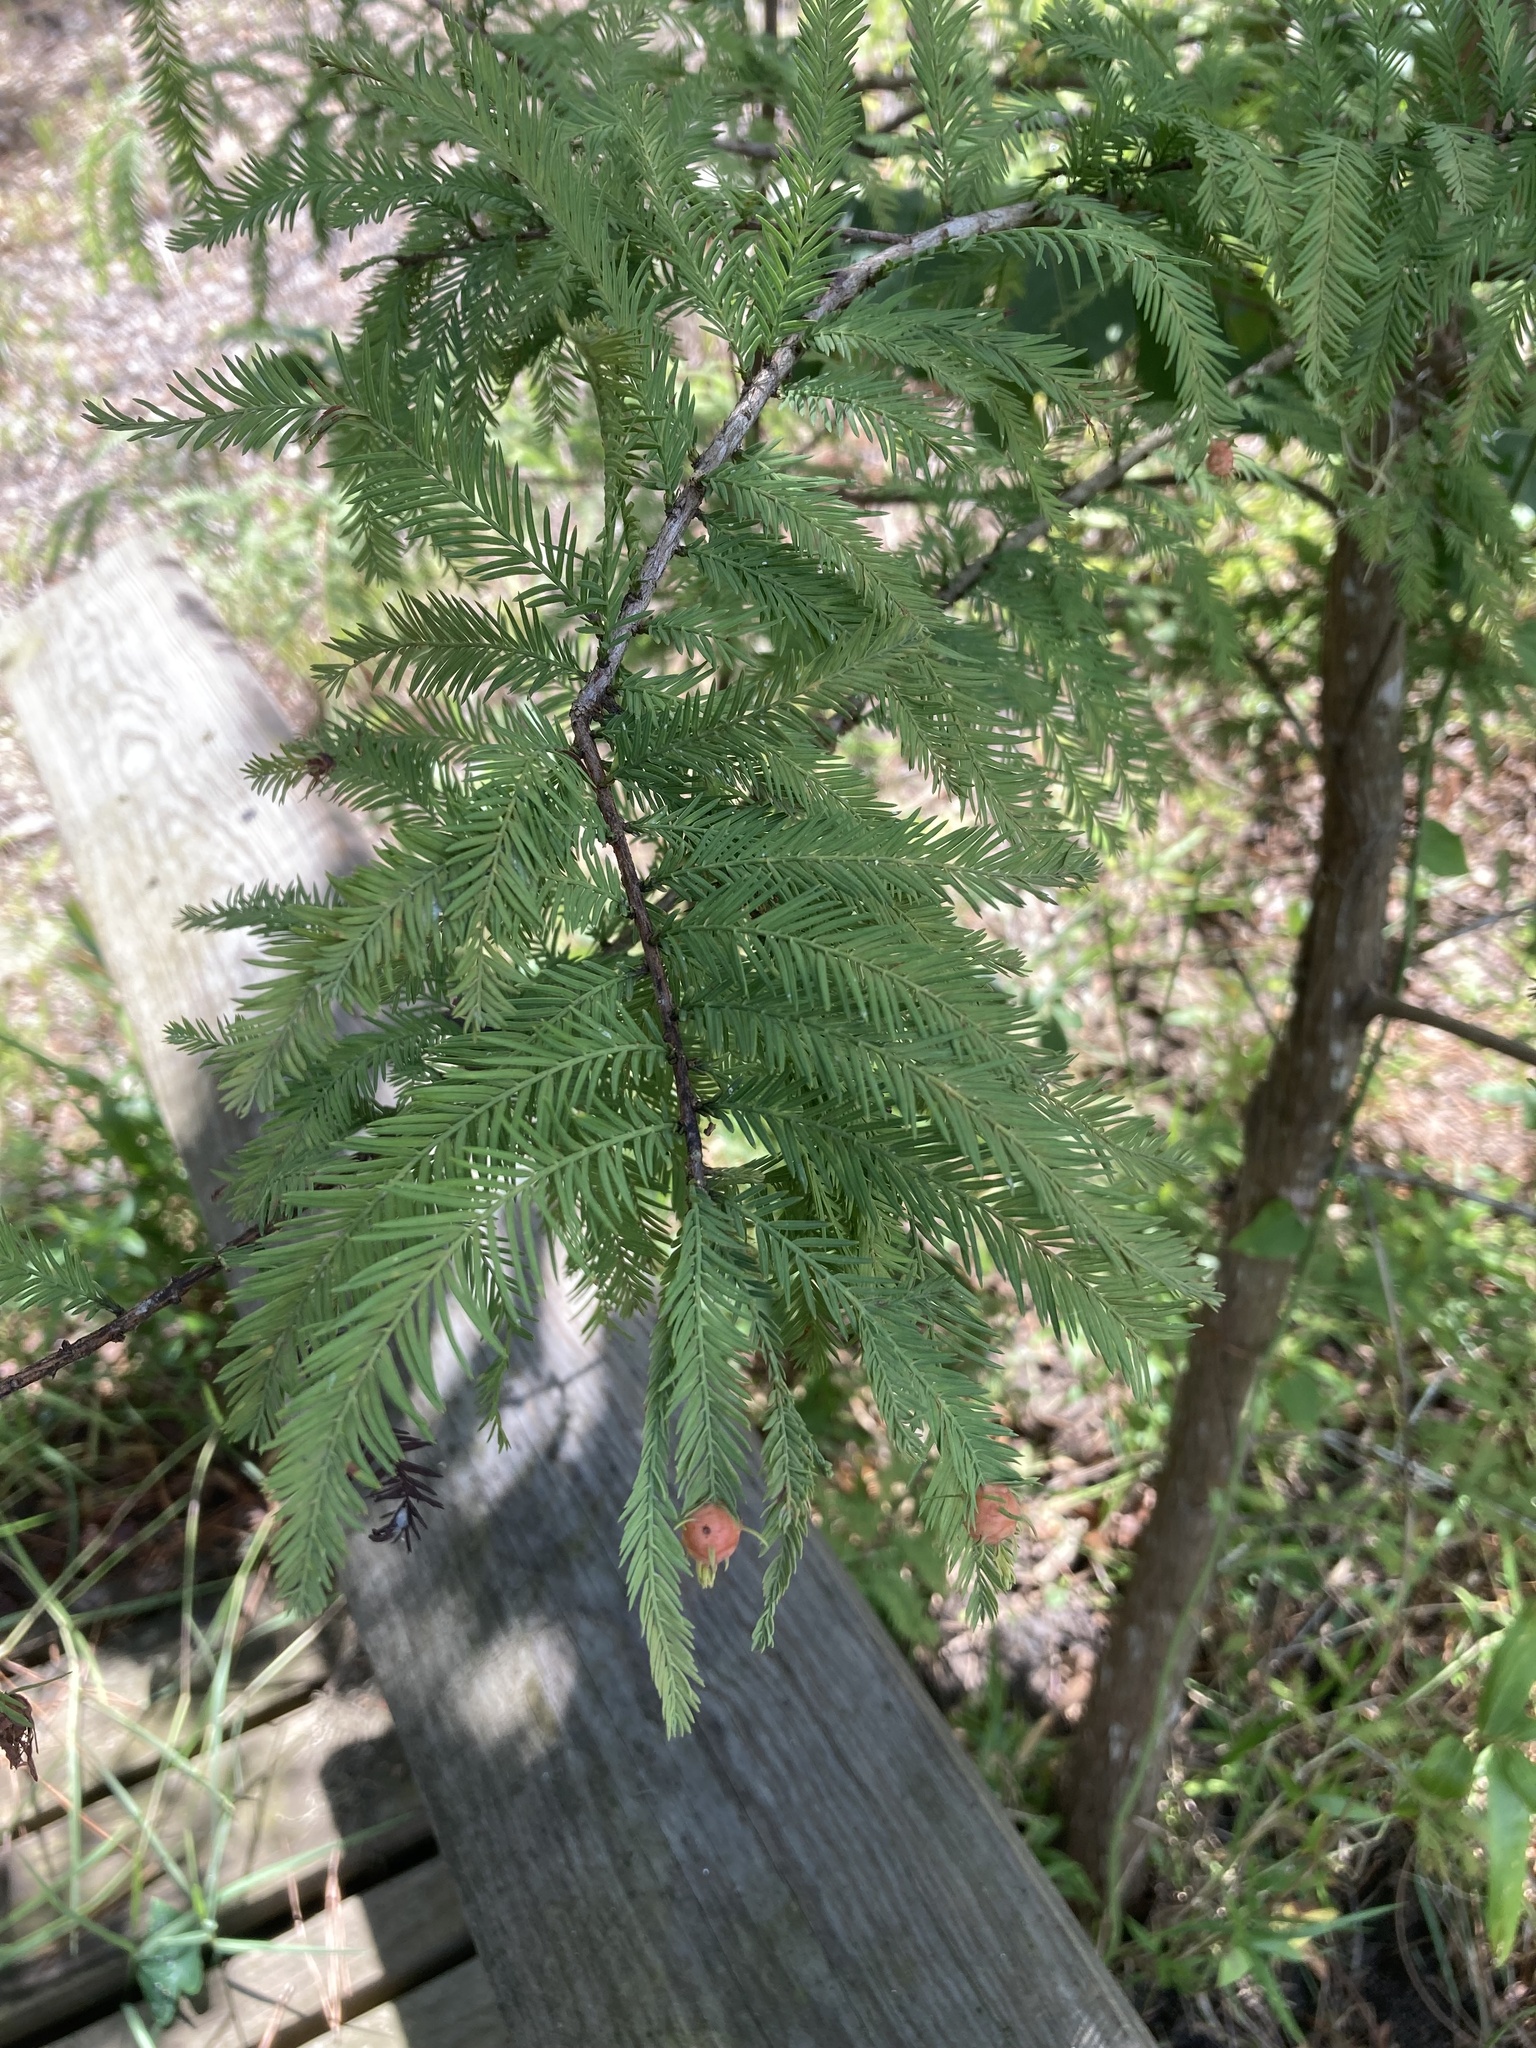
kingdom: Plantae
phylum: Tracheophyta
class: Pinopsida
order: Pinales
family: Cupressaceae
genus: Taxodium
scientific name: Taxodium distichum
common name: Bald cypress
